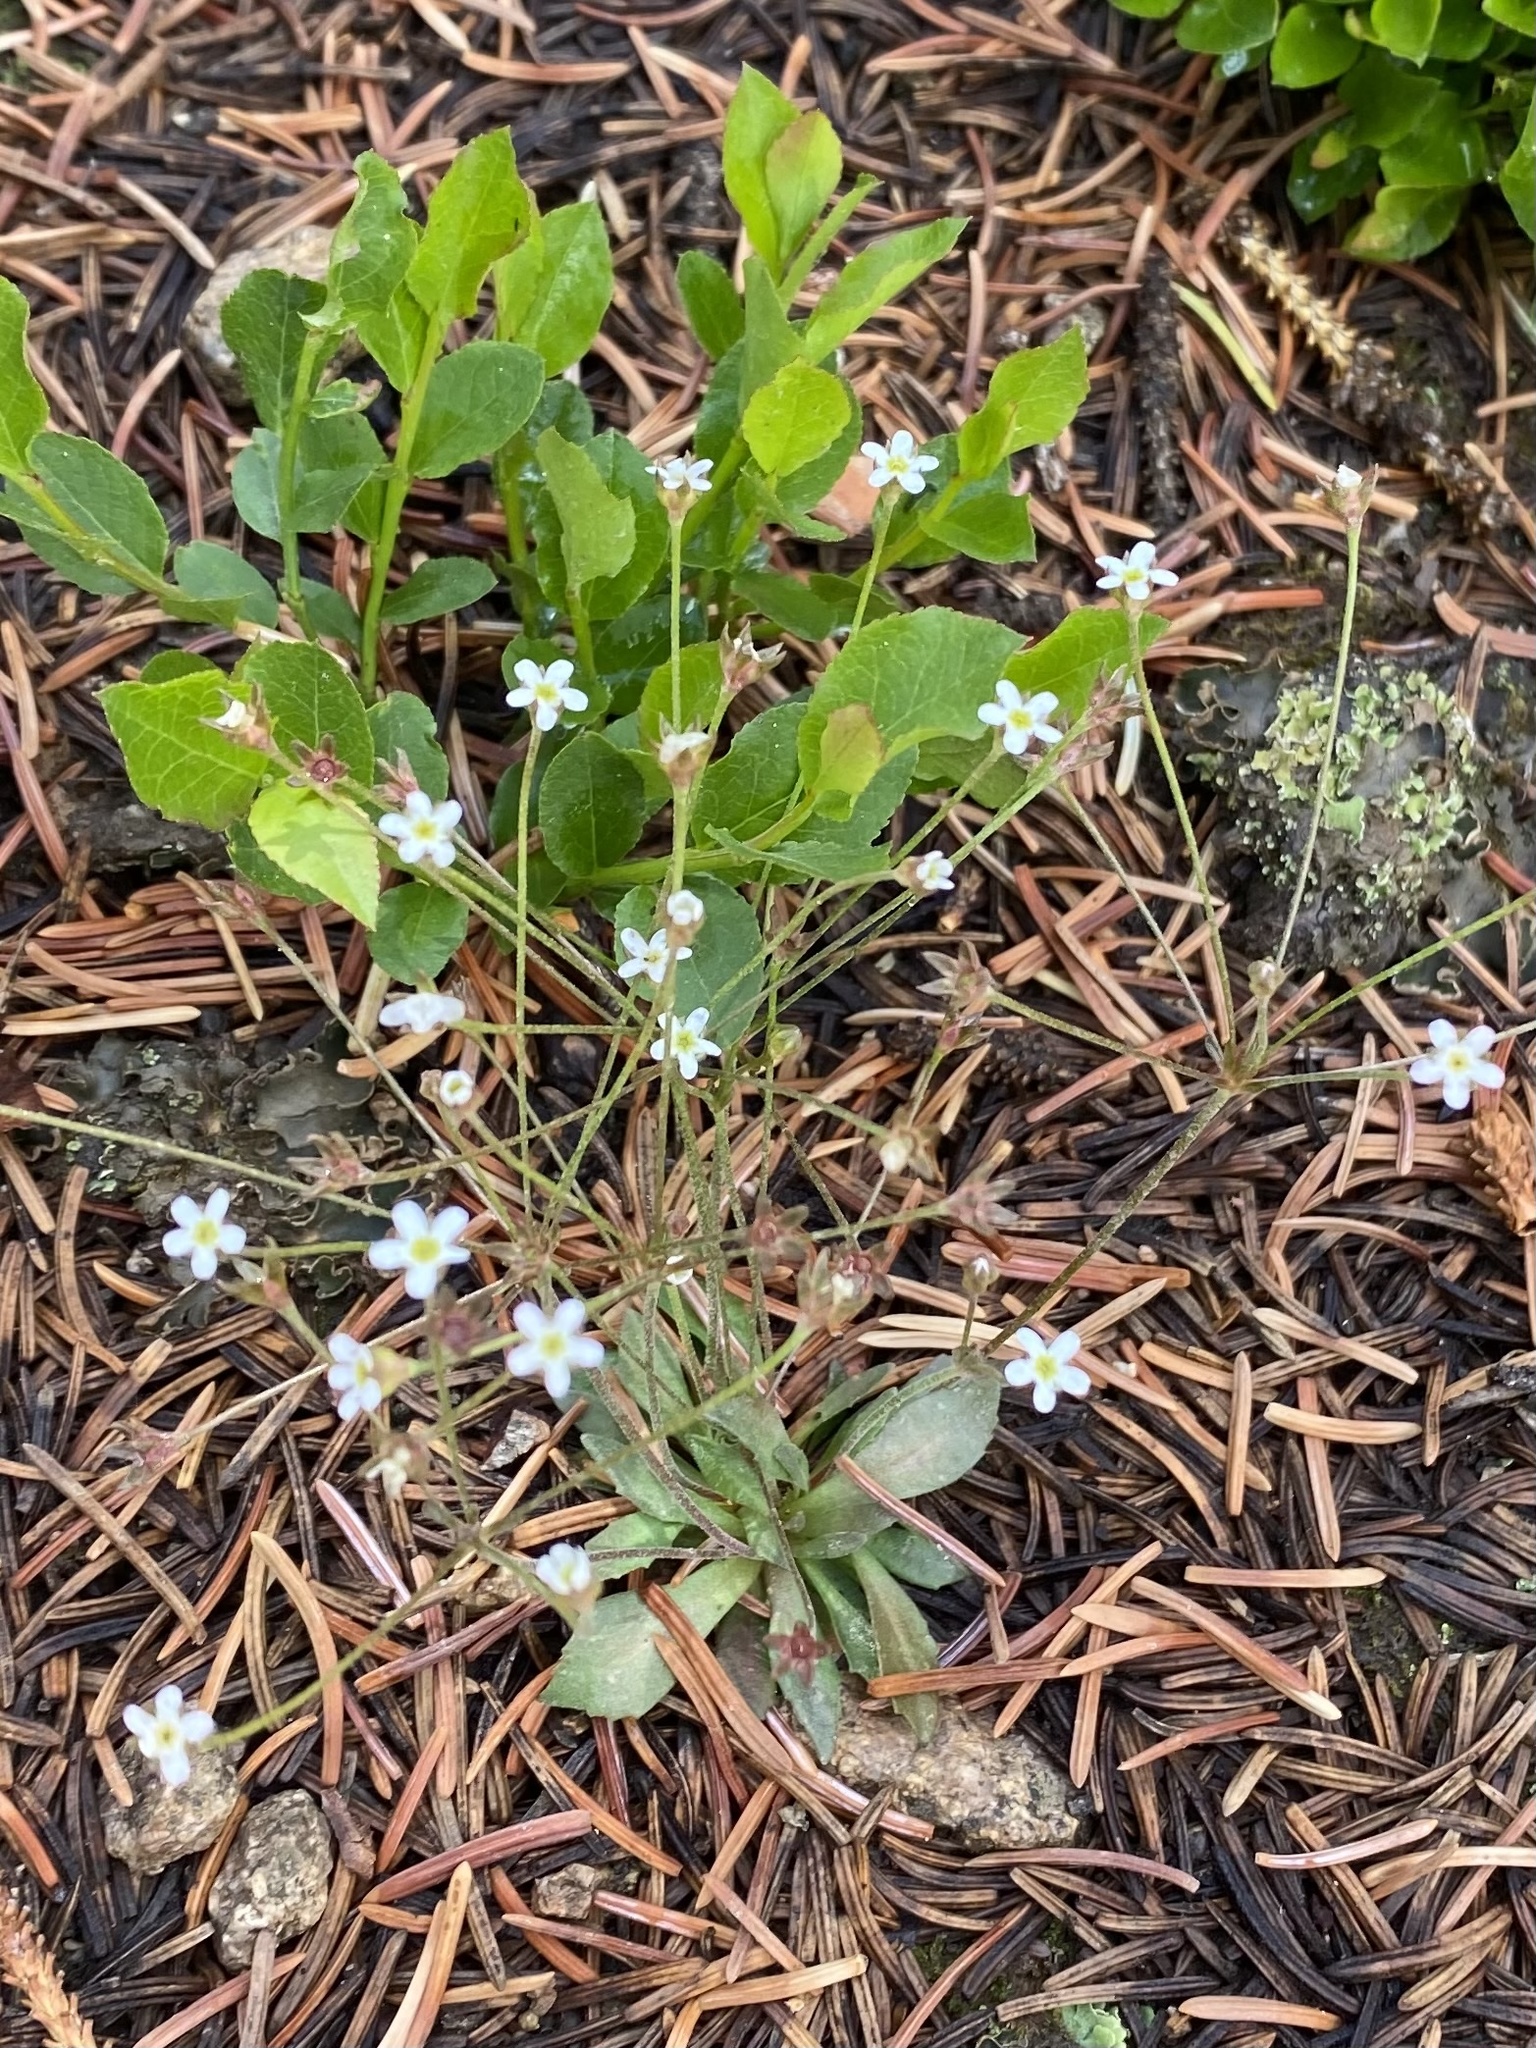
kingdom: Plantae
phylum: Tracheophyta
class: Magnoliopsida
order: Ericales
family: Primulaceae
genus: Androsace
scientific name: Androsace septentrionalis
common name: Hairy northern fairy-candelabra
